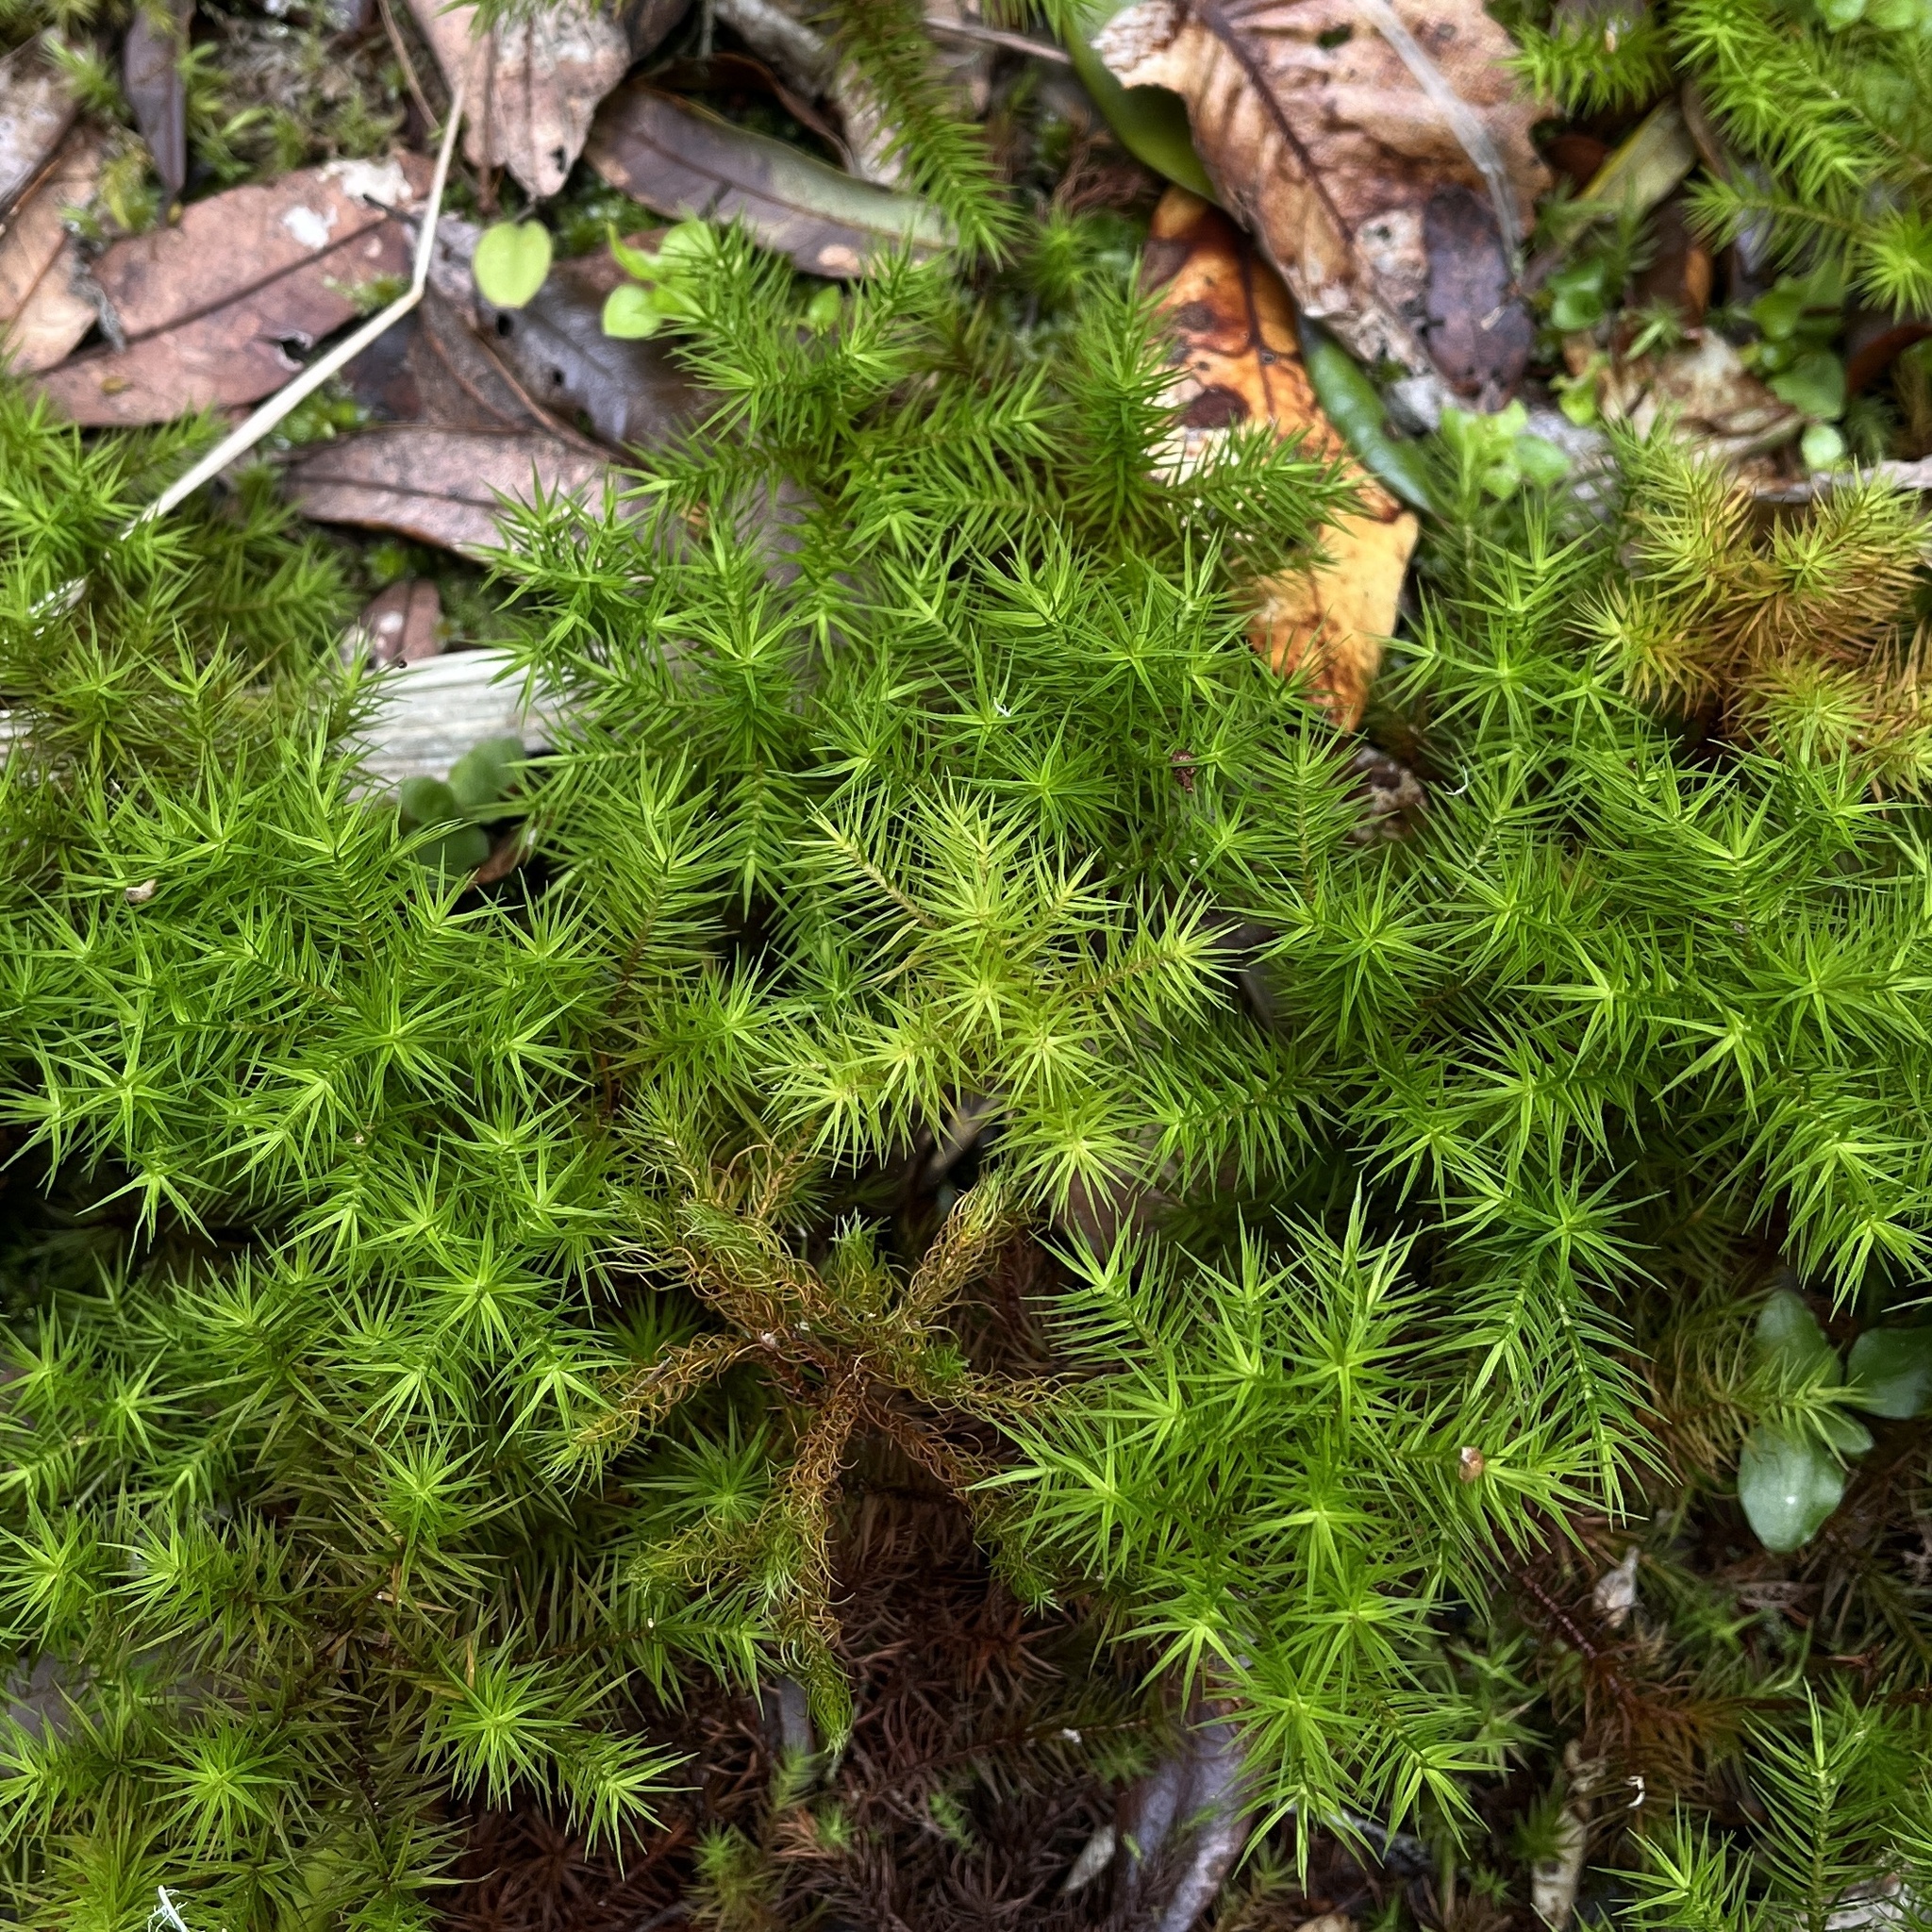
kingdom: Plantae
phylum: Bryophyta
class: Polytrichopsida
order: Polytrichales
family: Polytrichaceae
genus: Dendroligotrichum
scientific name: Dendroligotrichum dendroides
